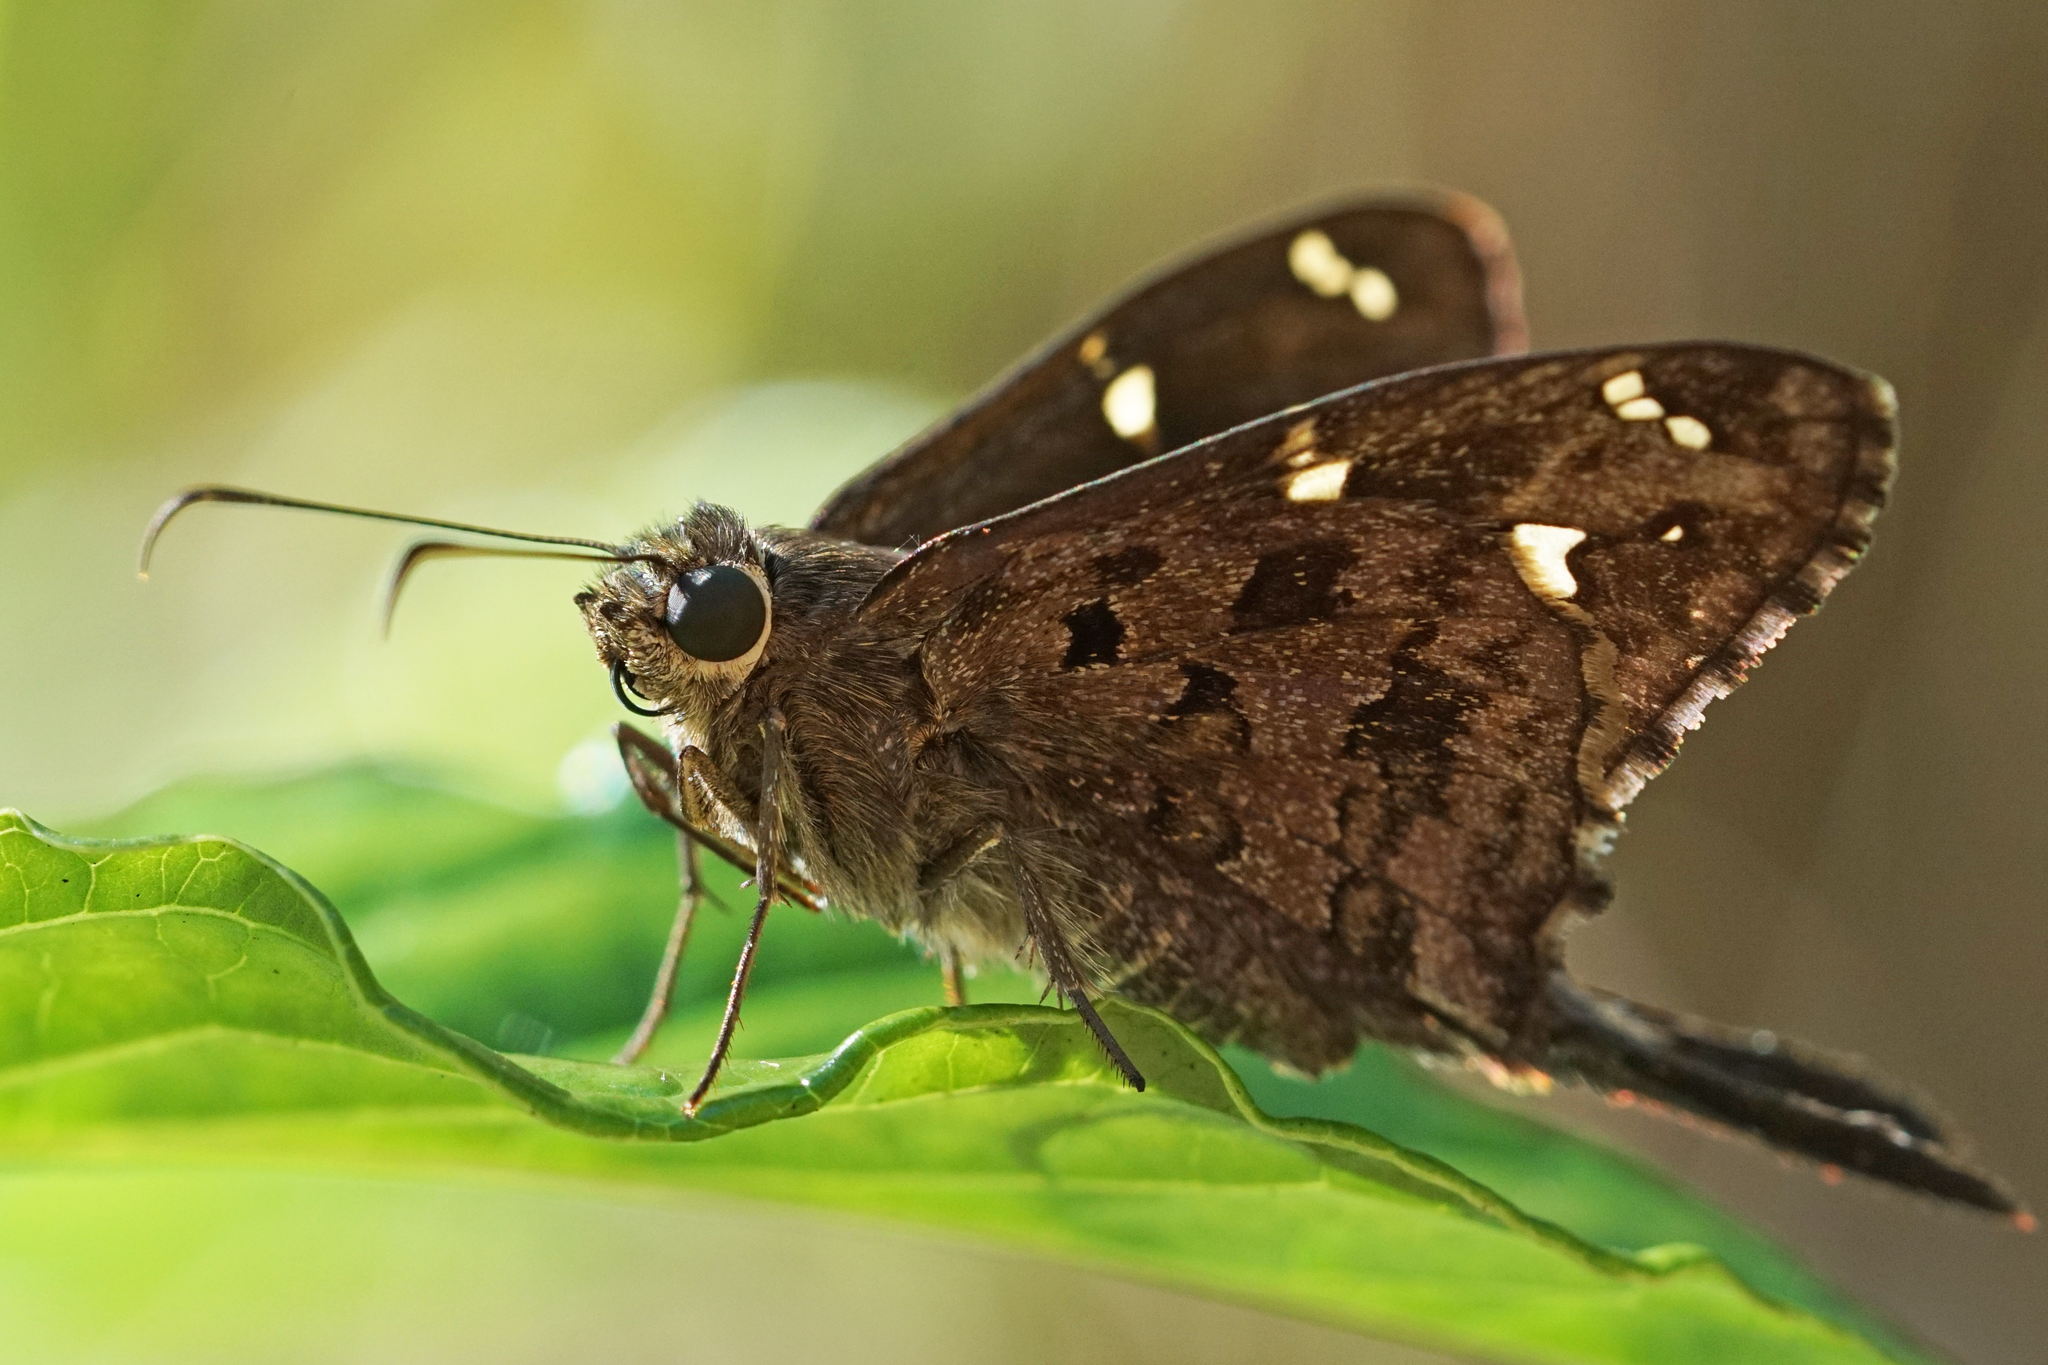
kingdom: Animalia
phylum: Arthropoda
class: Insecta
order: Lepidoptera
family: Hesperiidae
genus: Thorybes
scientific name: Thorybes
